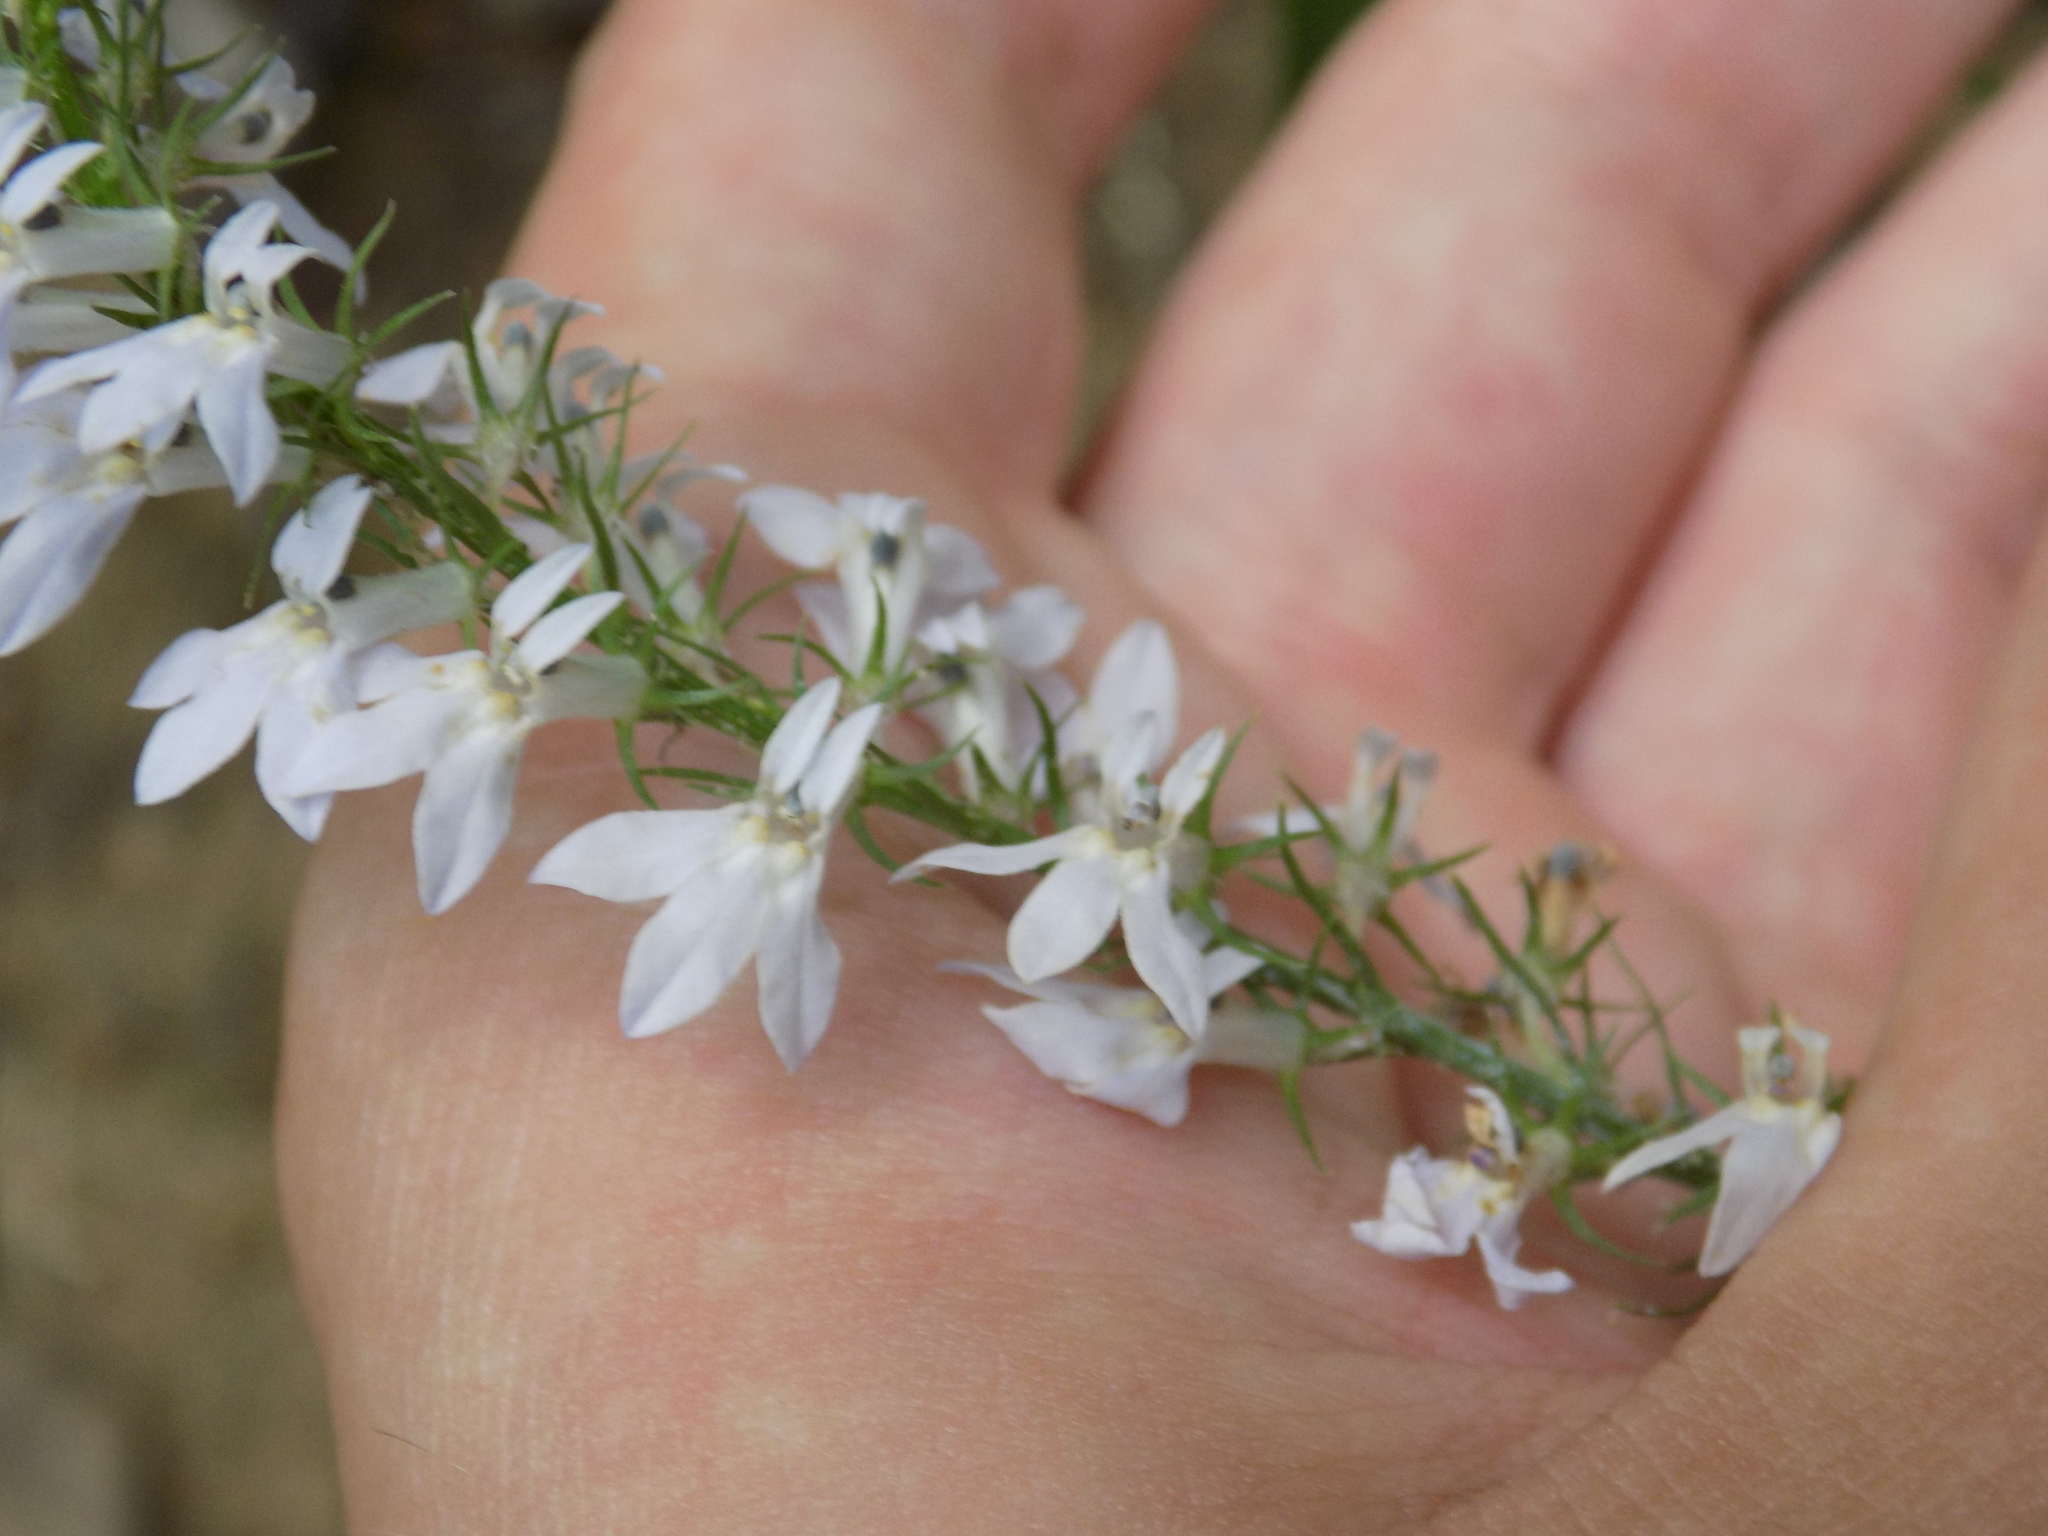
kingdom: Plantae
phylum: Tracheophyta
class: Magnoliopsida
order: Asterales
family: Campanulaceae
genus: Lobelia
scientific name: Lobelia spicata
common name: Pale-spike lobelia
